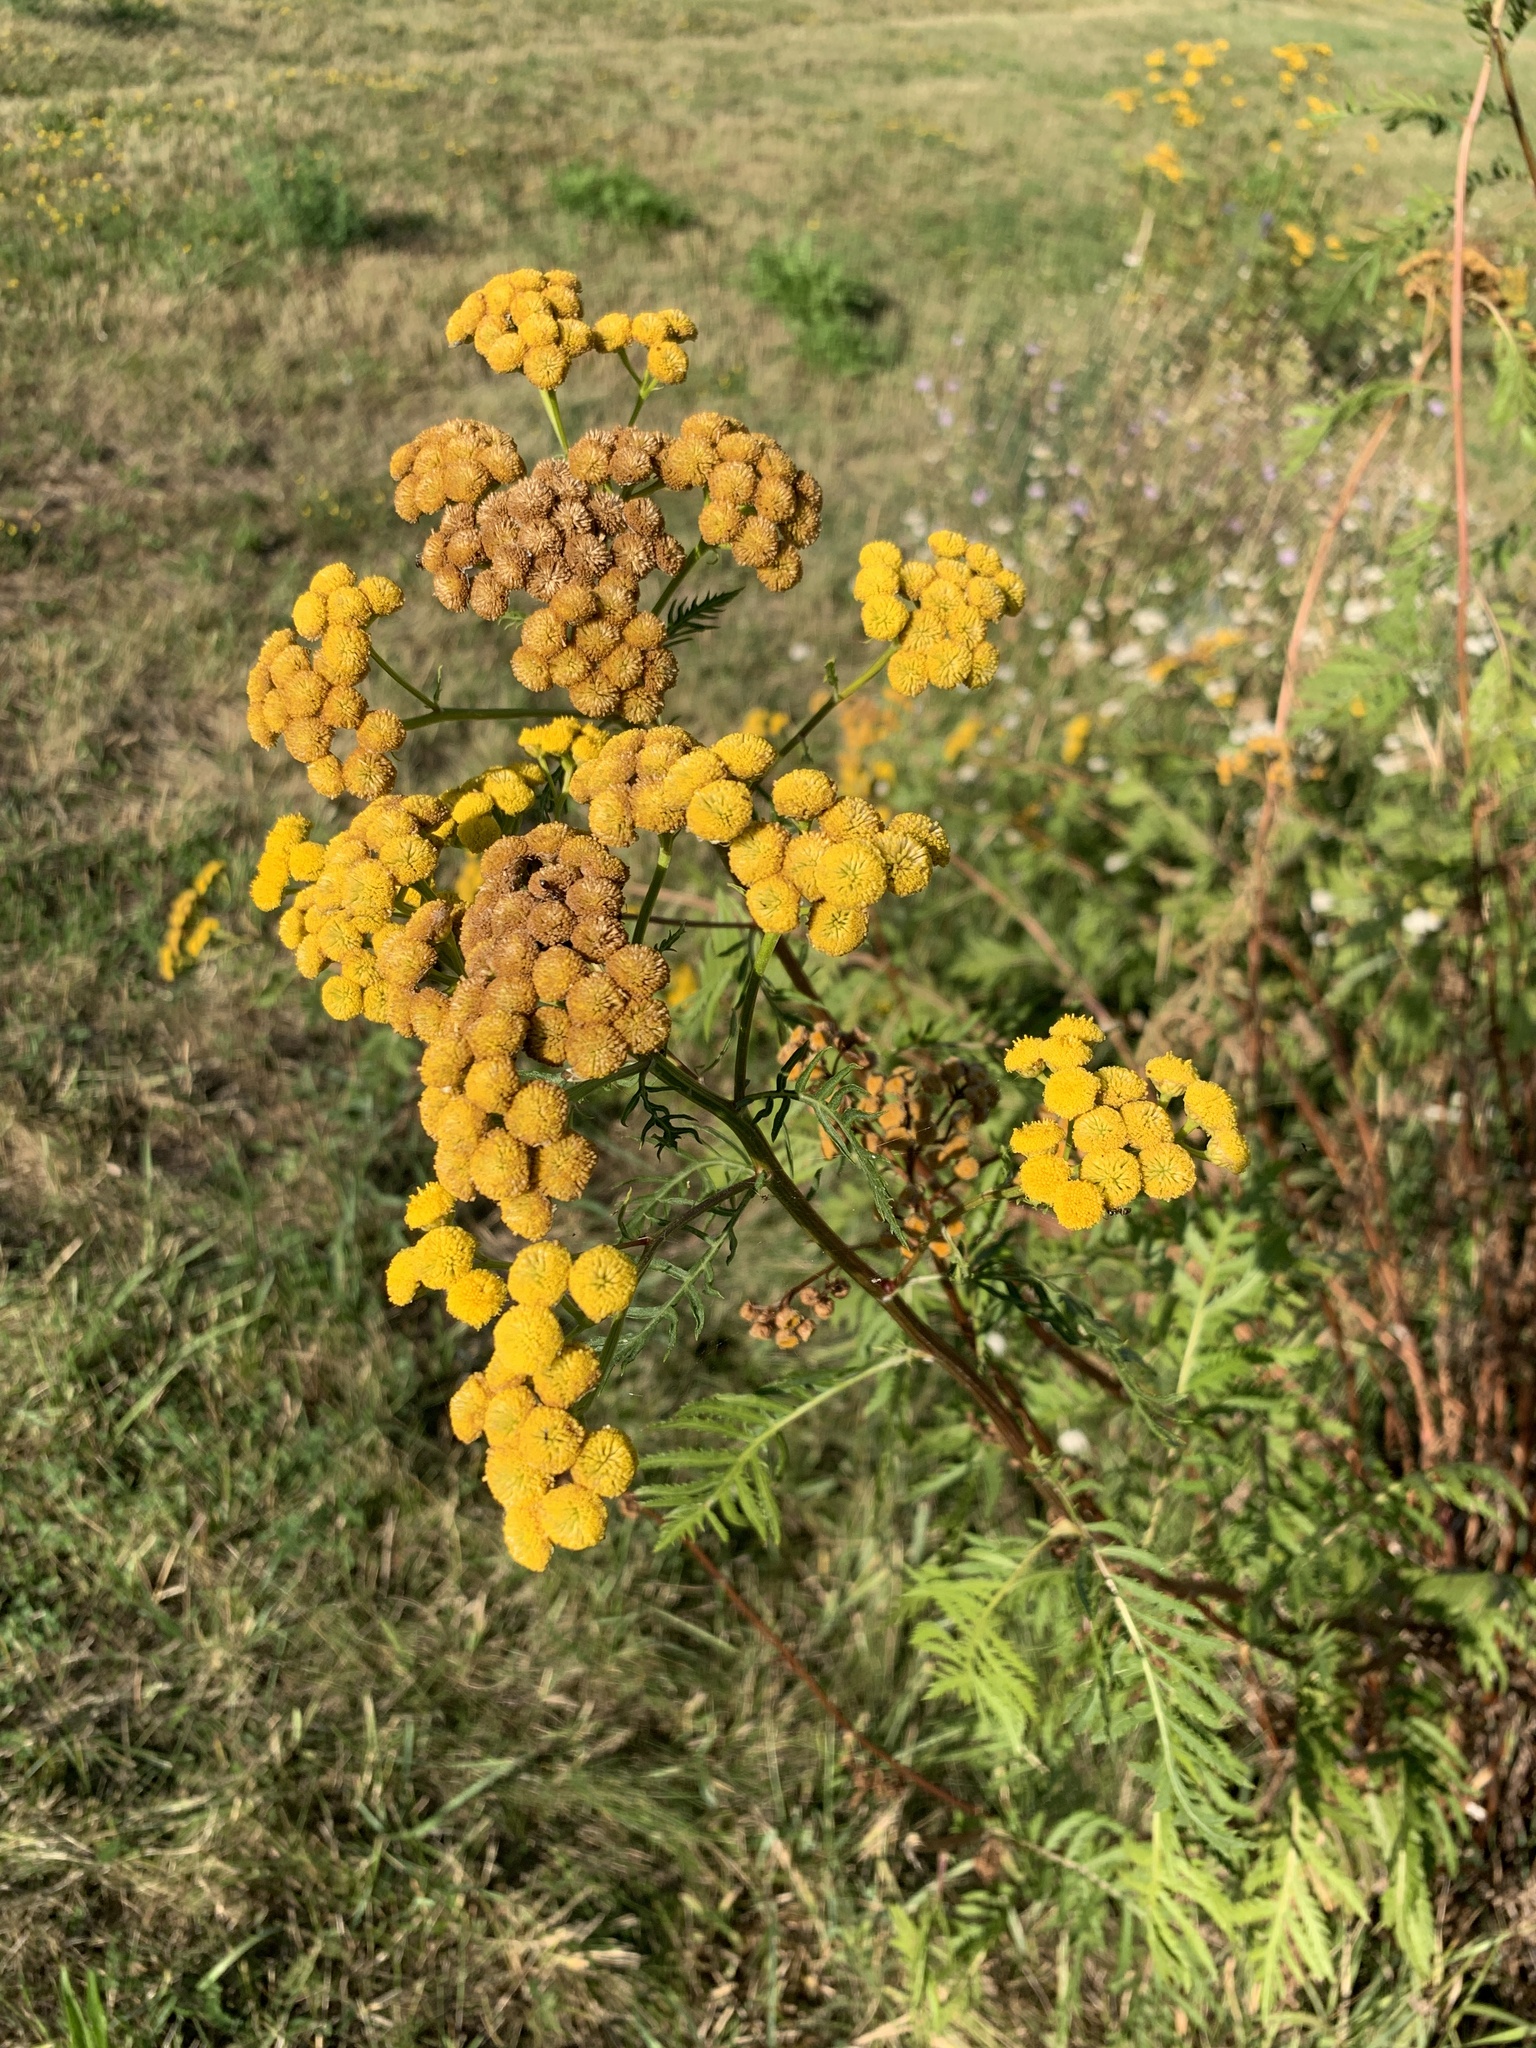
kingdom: Plantae
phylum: Tracheophyta
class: Magnoliopsida
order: Asterales
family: Asteraceae
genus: Tanacetum
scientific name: Tanacetum vulgare
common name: Common tansy
